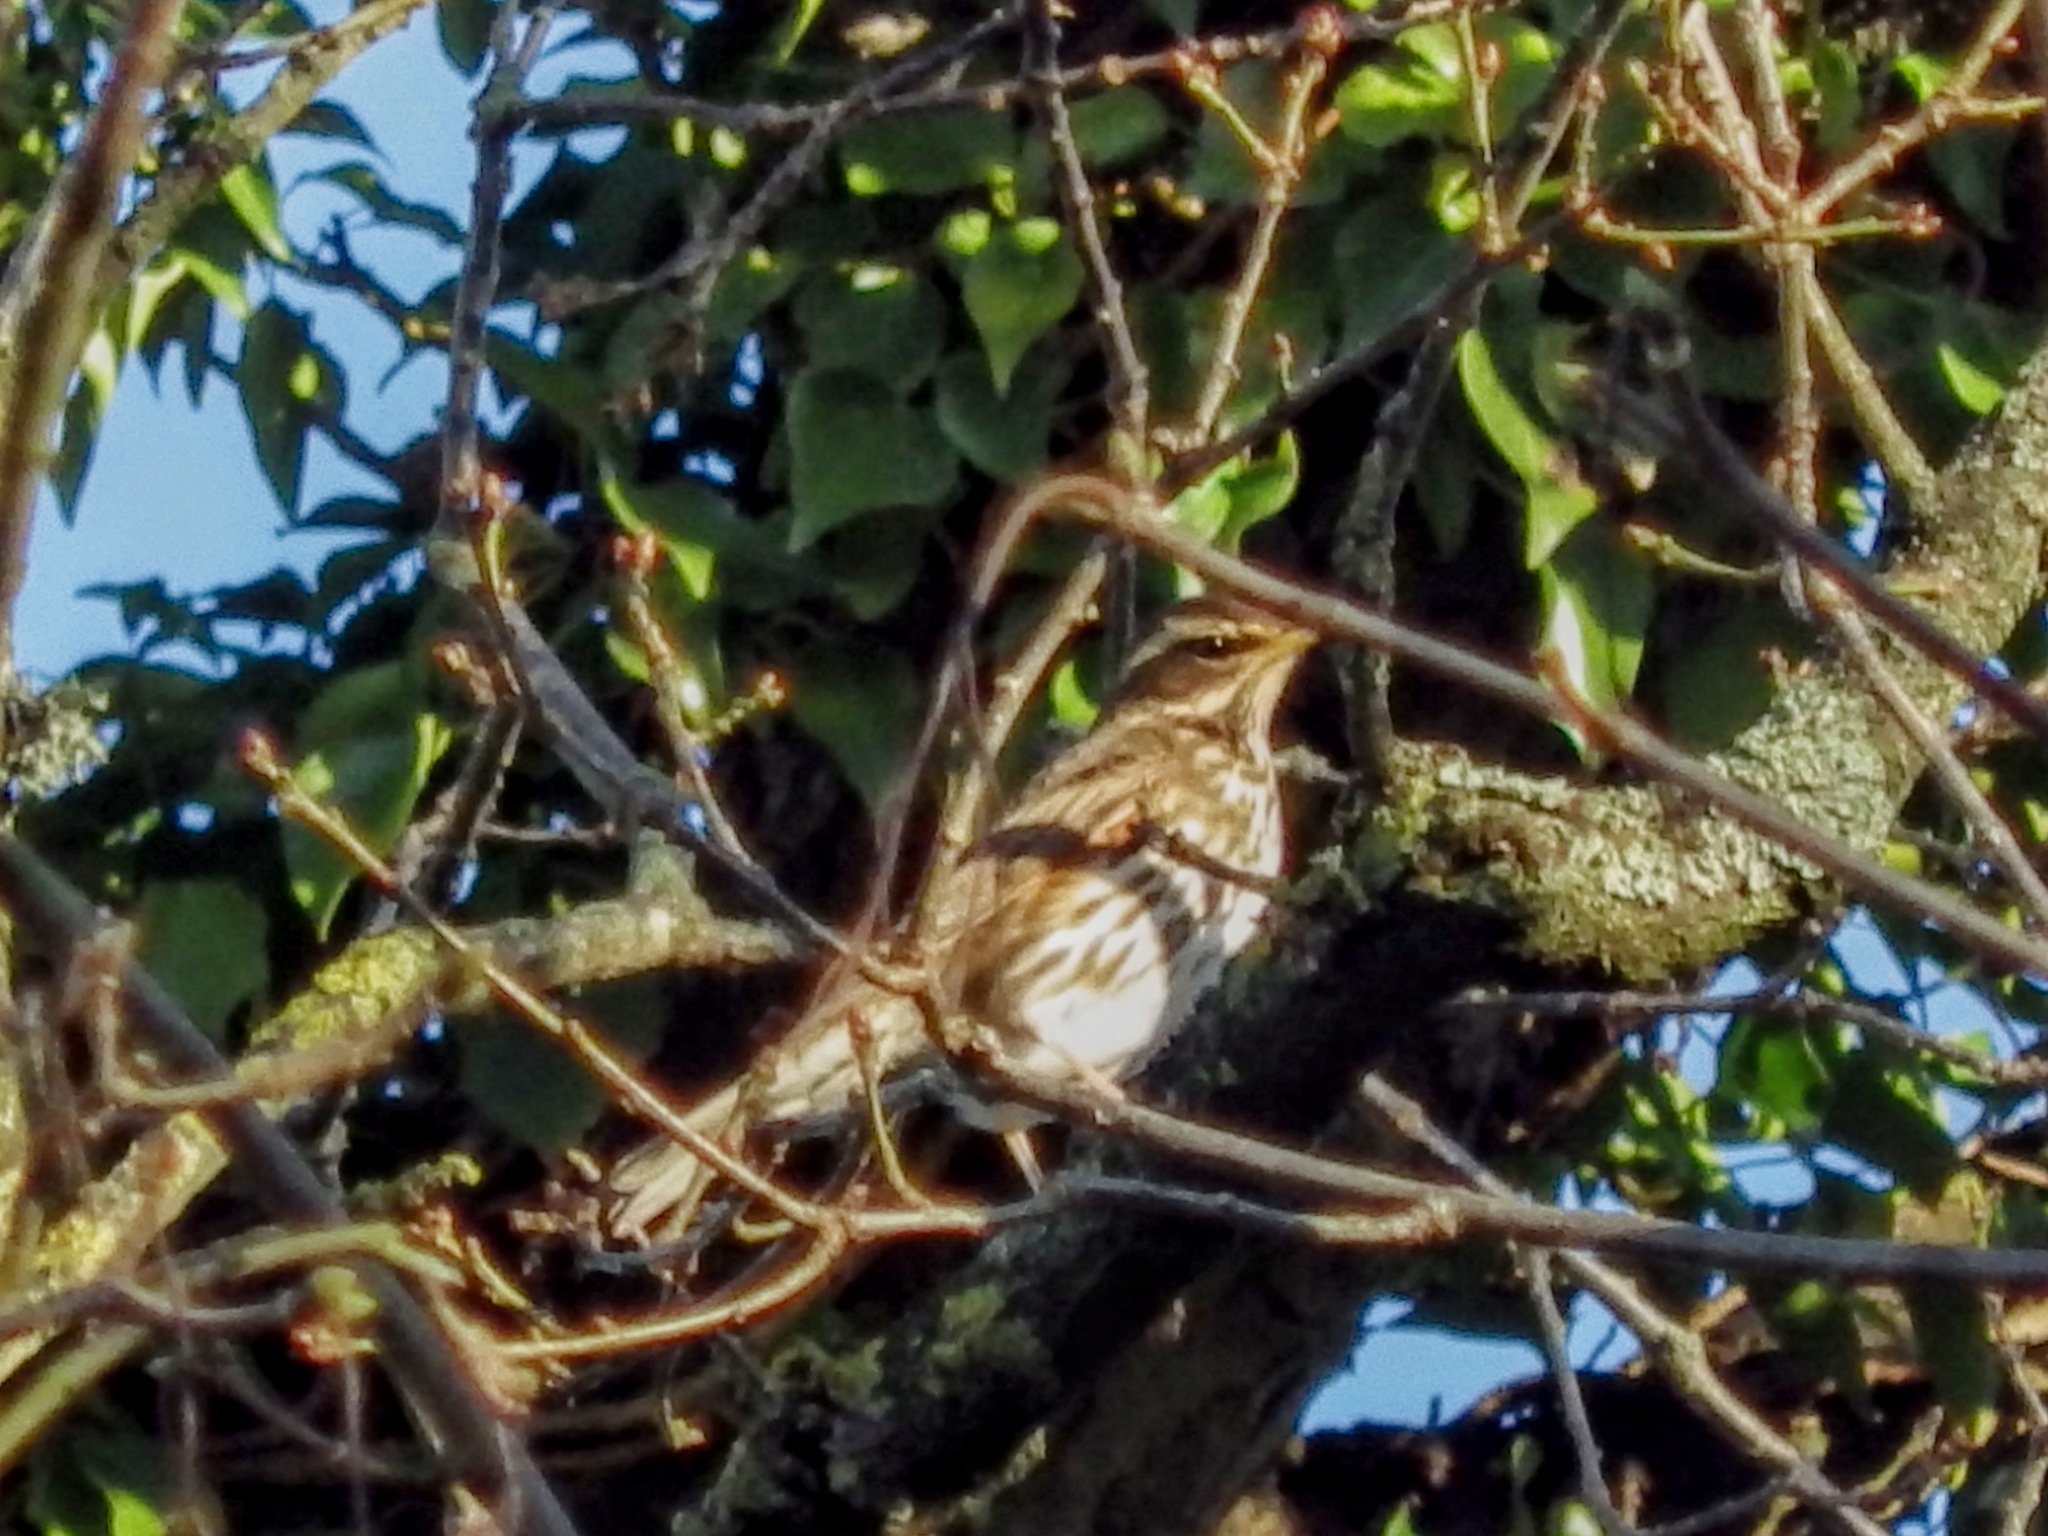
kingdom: Animalia
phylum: Chordata
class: Aves
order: Passeriformes
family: Turdidae
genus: Turdus
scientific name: Turdus iliacus
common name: Redwing
